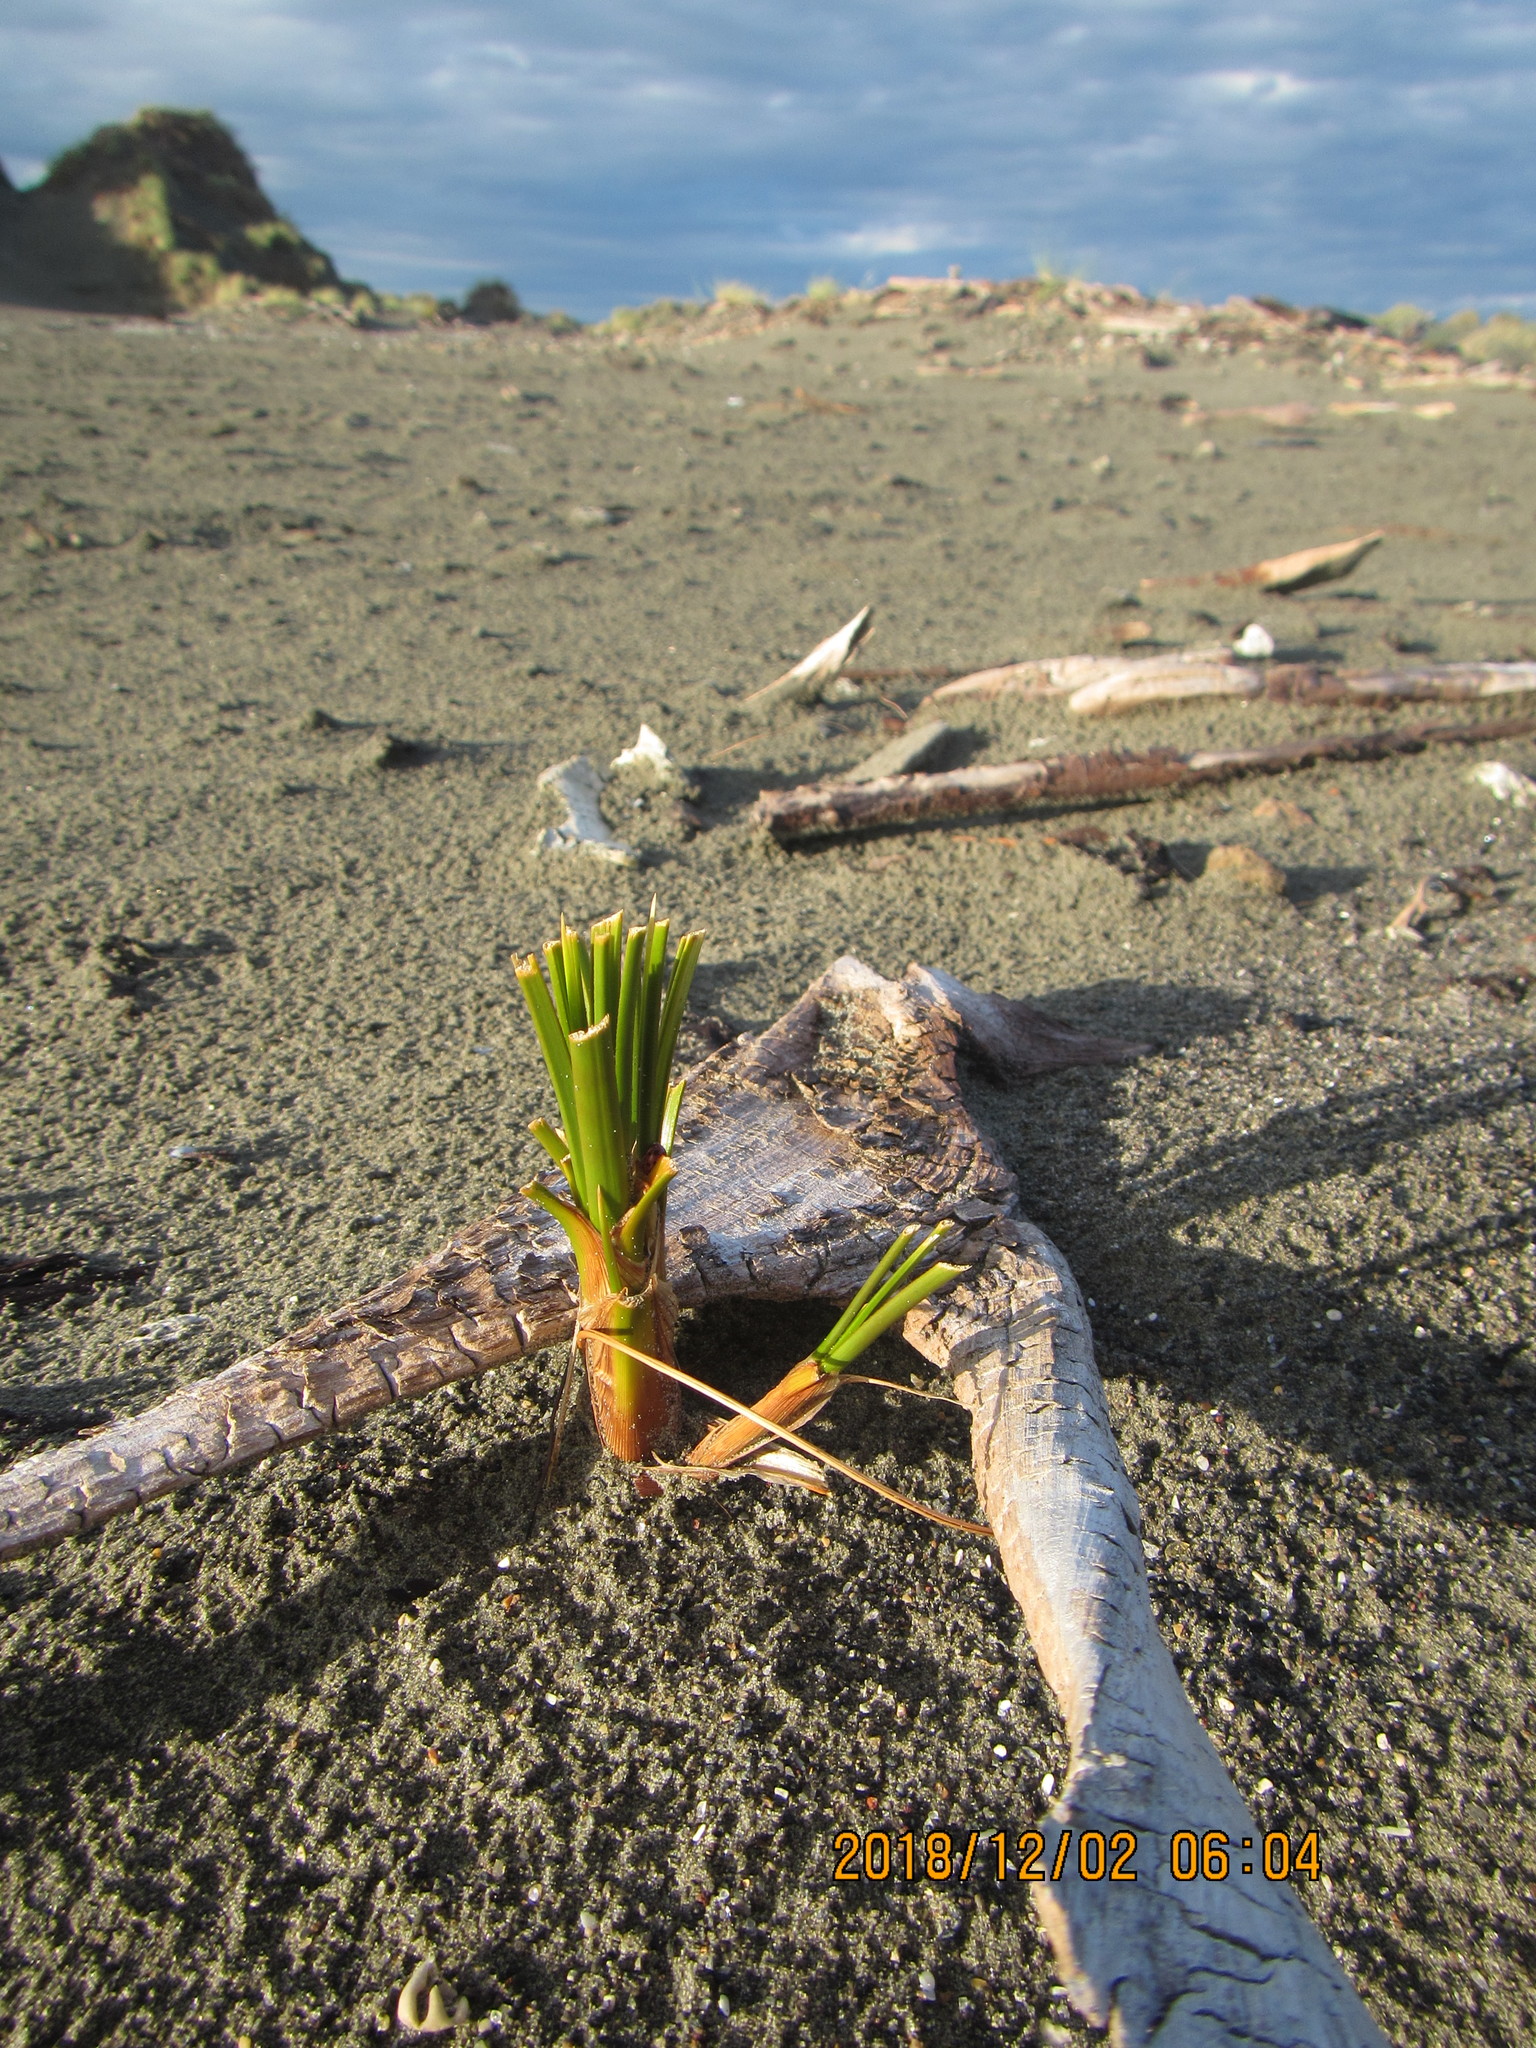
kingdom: Plantae
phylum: Tracheophyta
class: Liliopsida
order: Poales
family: Cyperaceae
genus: Ficinia
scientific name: Ficinia spiralis
